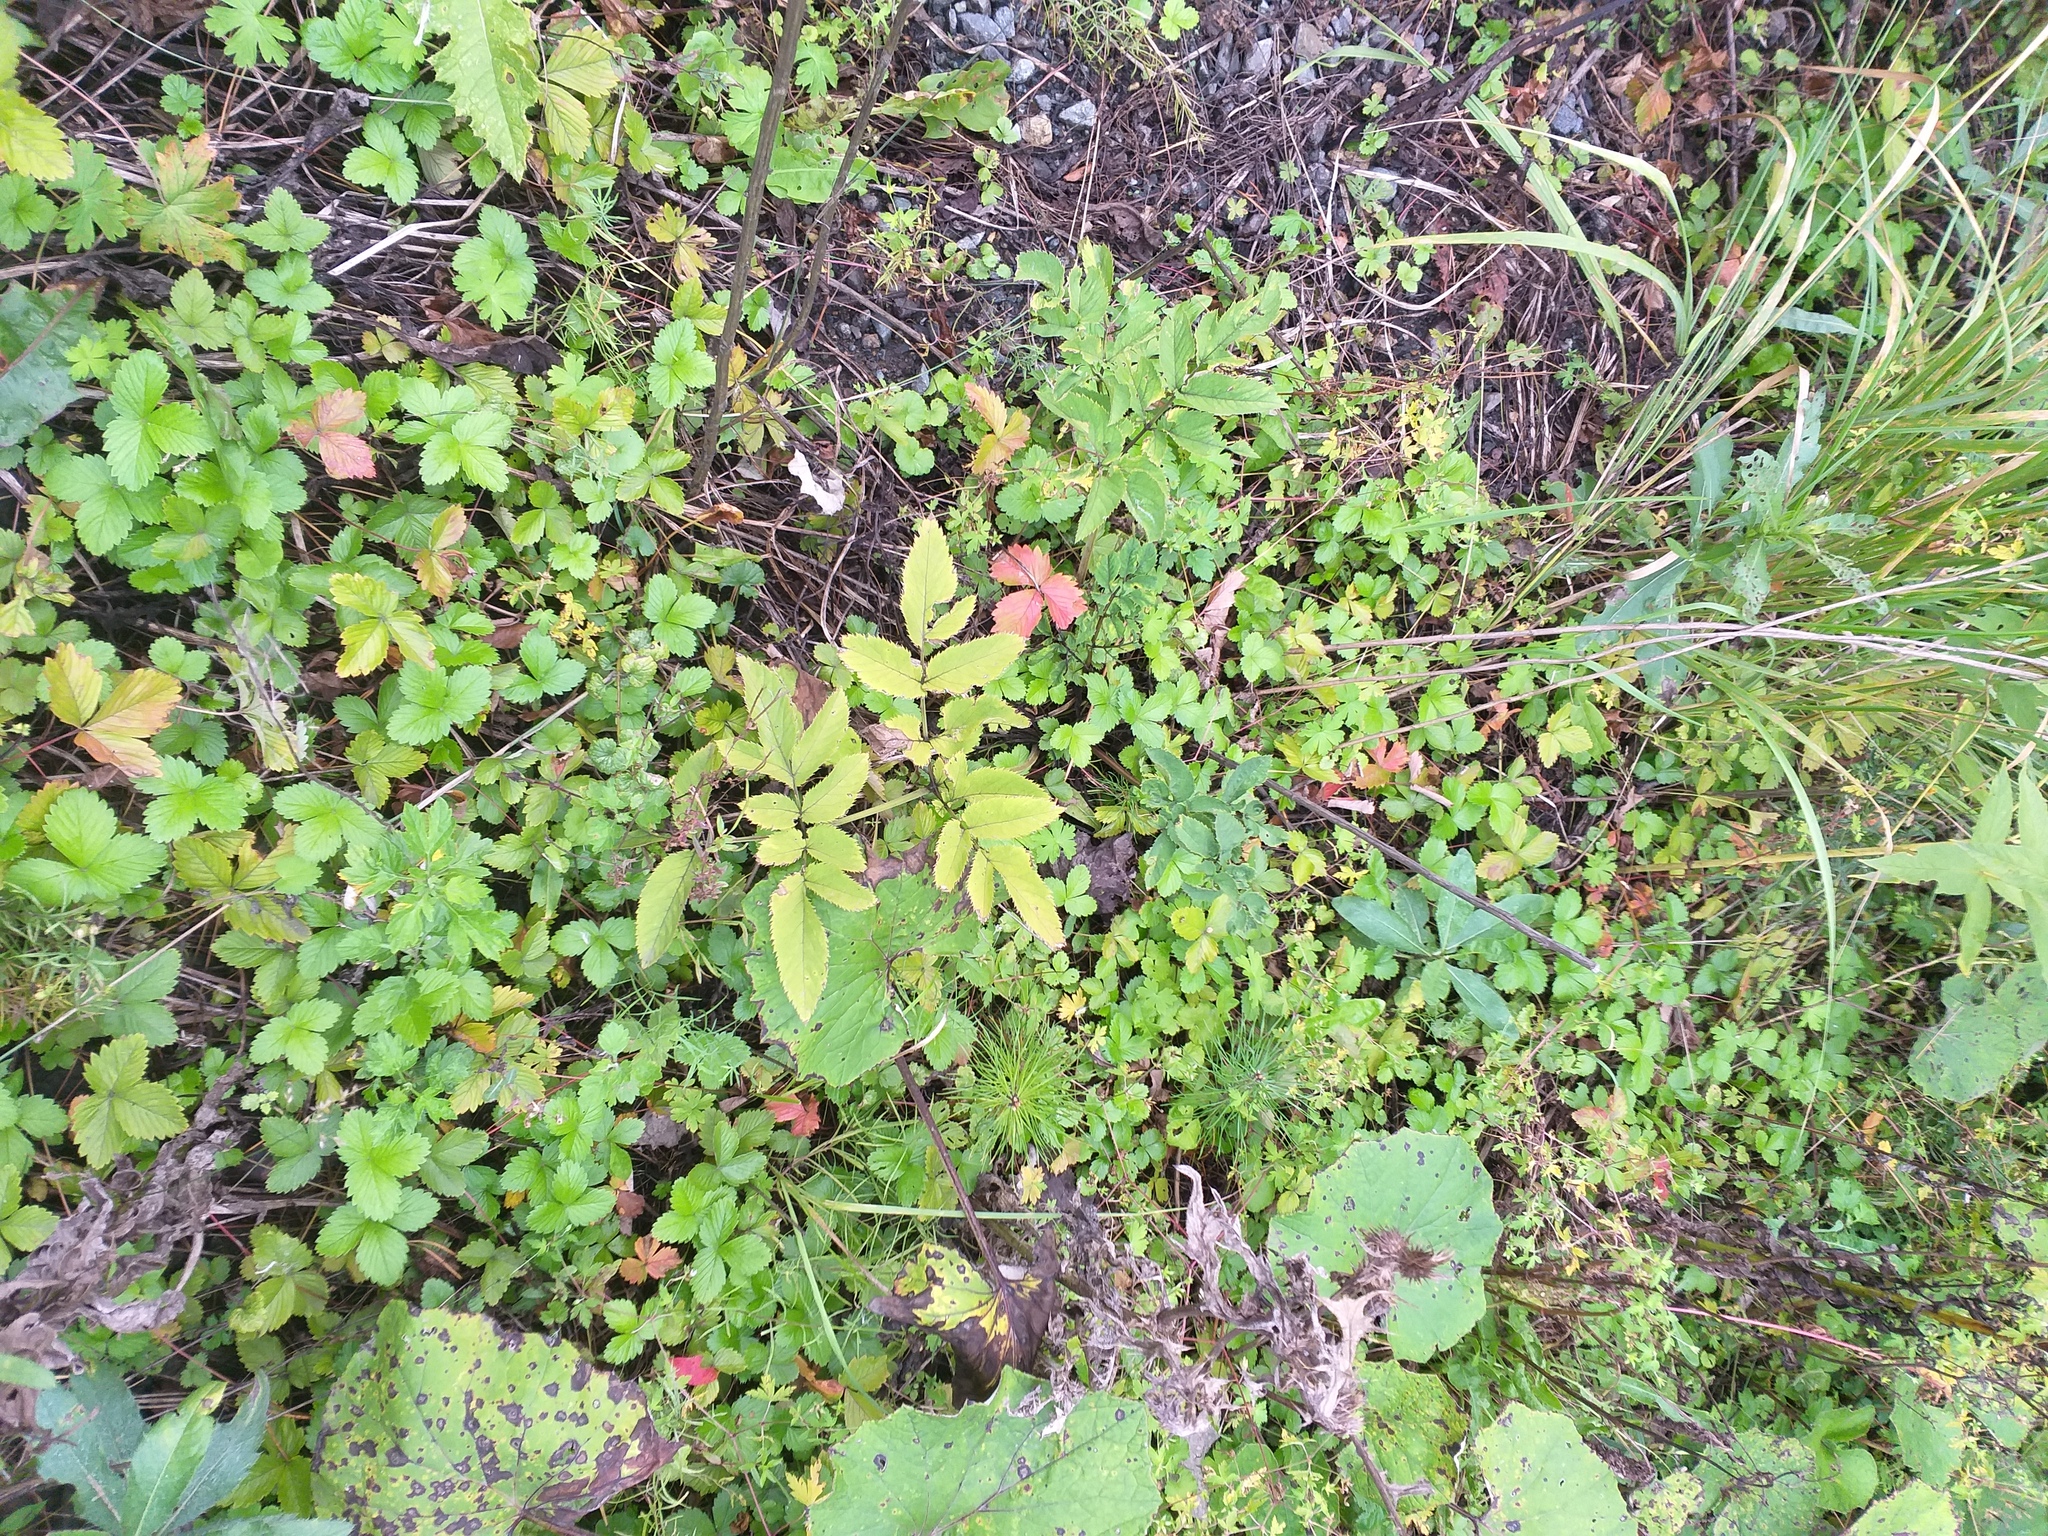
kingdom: Plantae
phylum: Tracheophyta
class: Magnoliopsida
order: Apiales
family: Apiaceae
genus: Angelica
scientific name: Angelica sylvestris
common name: Wild angelica
